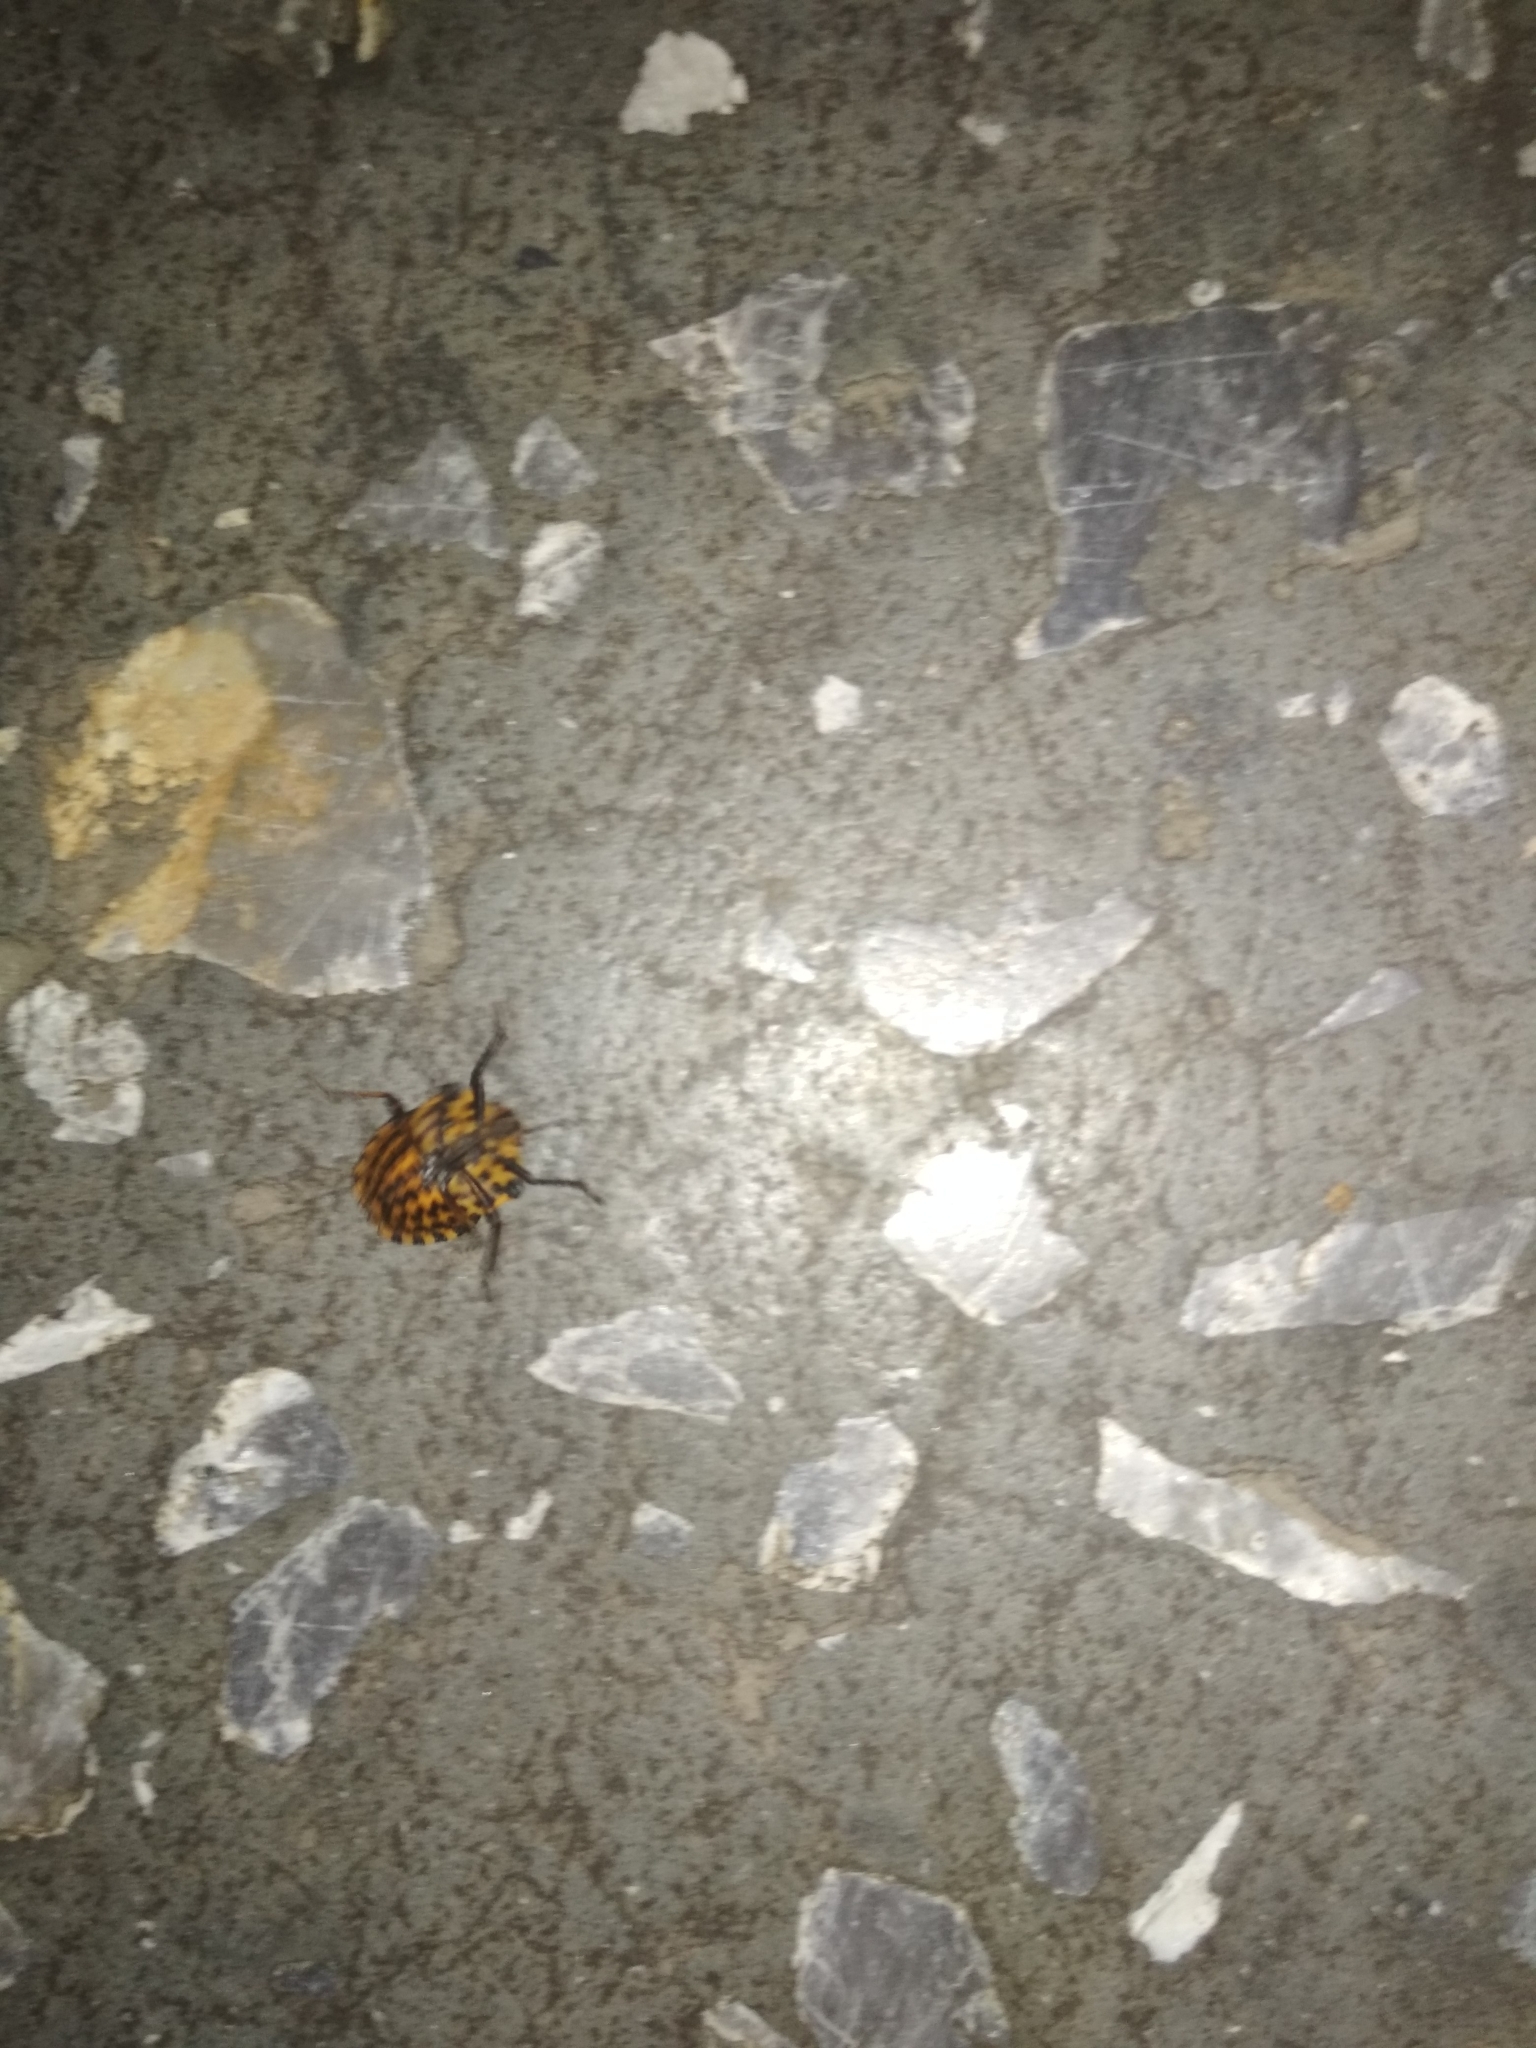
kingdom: Animalia
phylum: Arthropoda
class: Insecta
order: Hemiptera
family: Pentatomidae
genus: Graphosoma
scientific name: Graphosoma italicum
